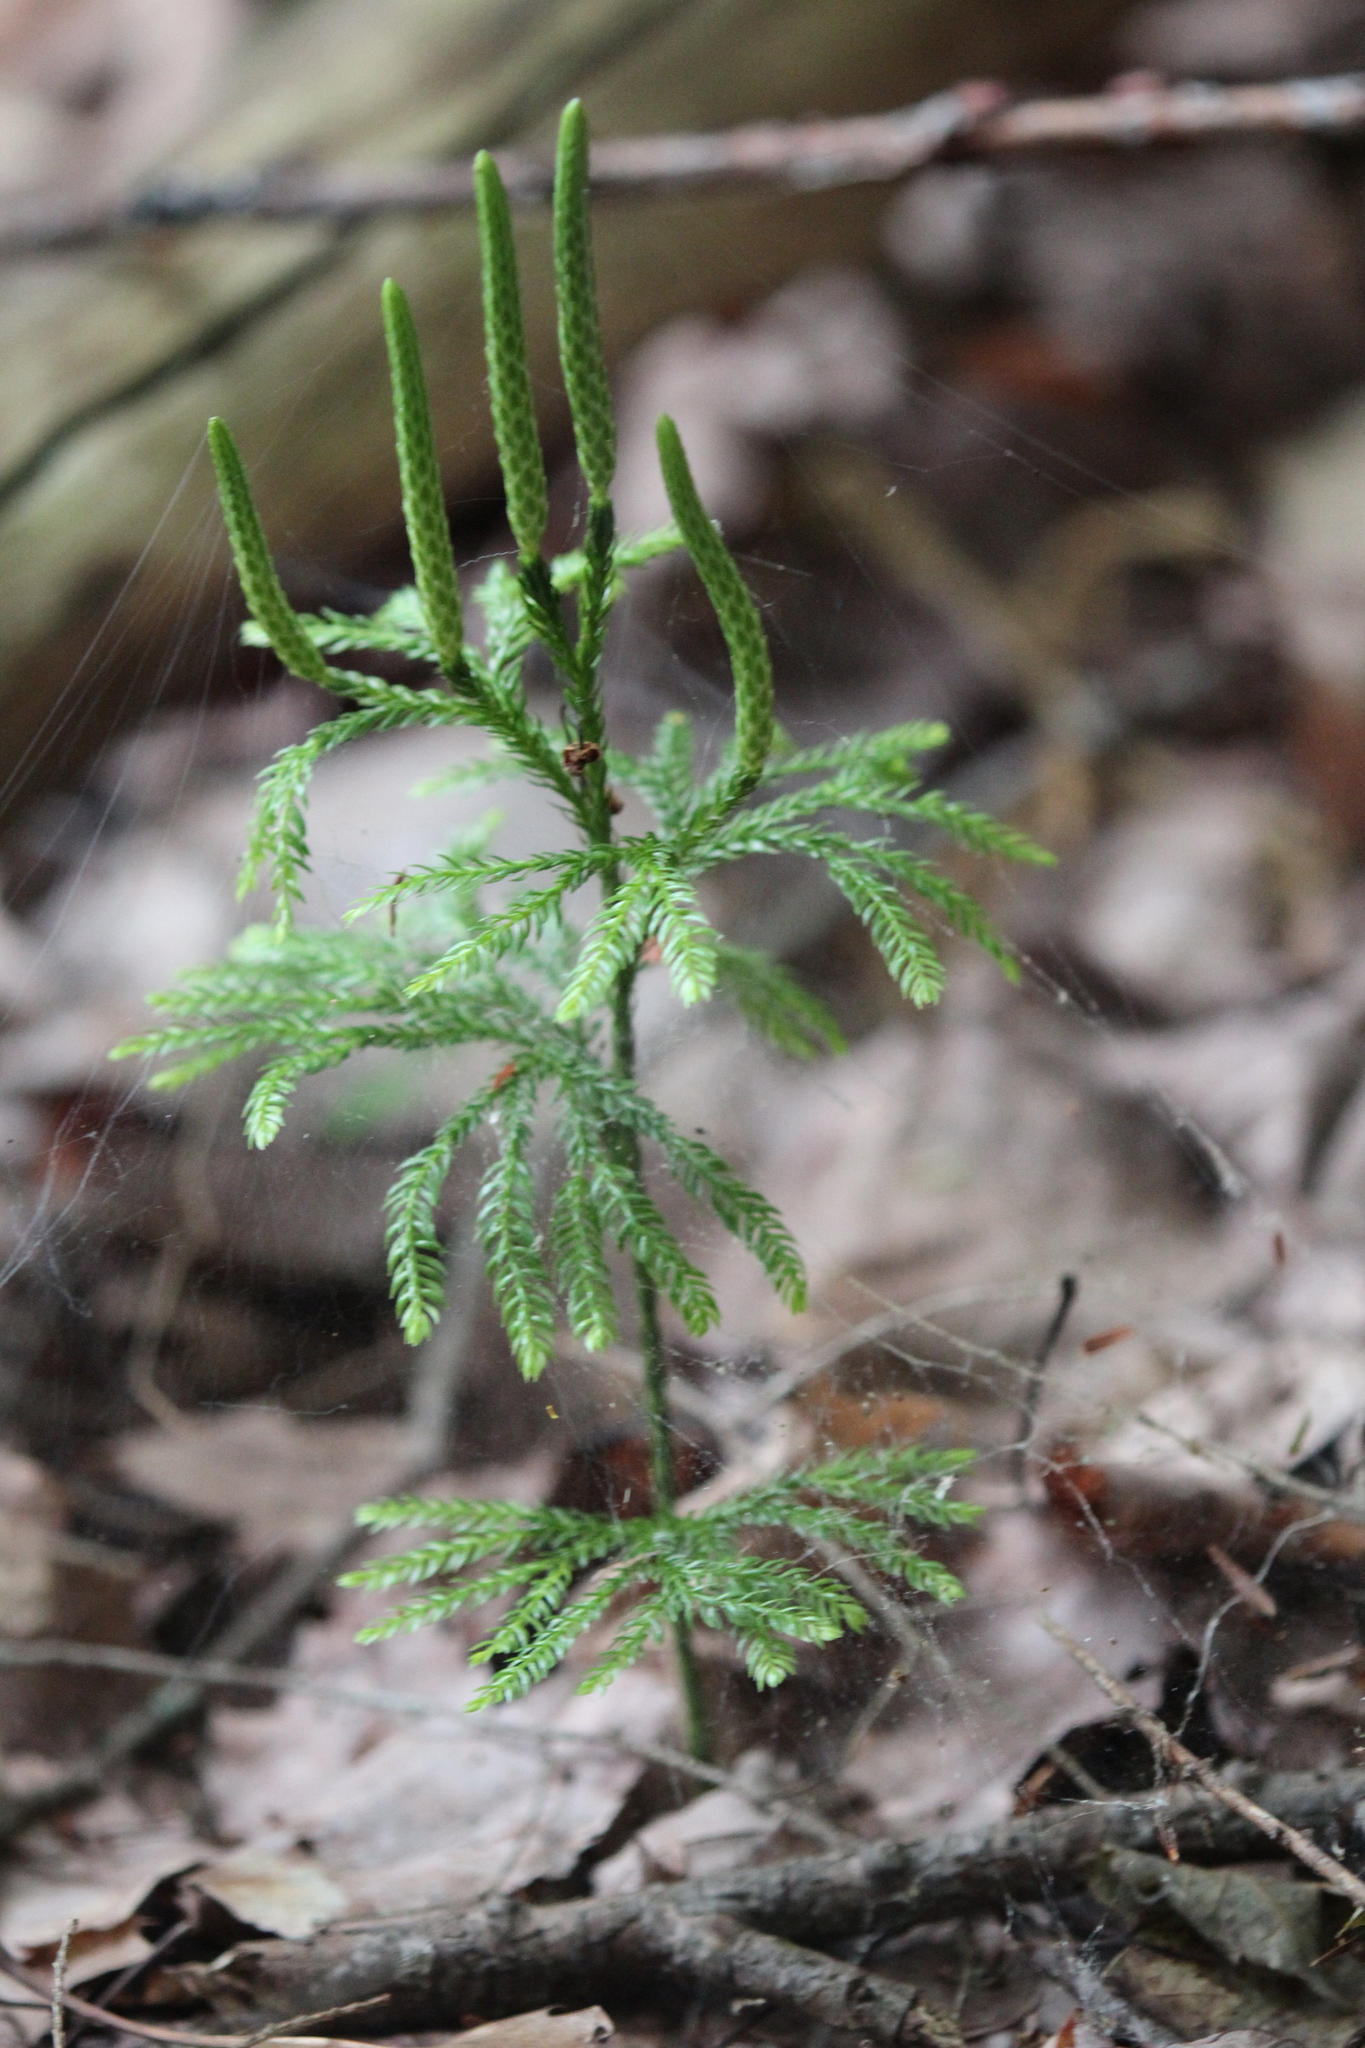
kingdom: Plantae
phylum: Tracheophyta
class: Lycopodiopsida
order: Lycopodiales
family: Lycopodiaceae
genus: Dendrolycopodium
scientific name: Dendrolycopodium obscurum
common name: Common ground-pine
